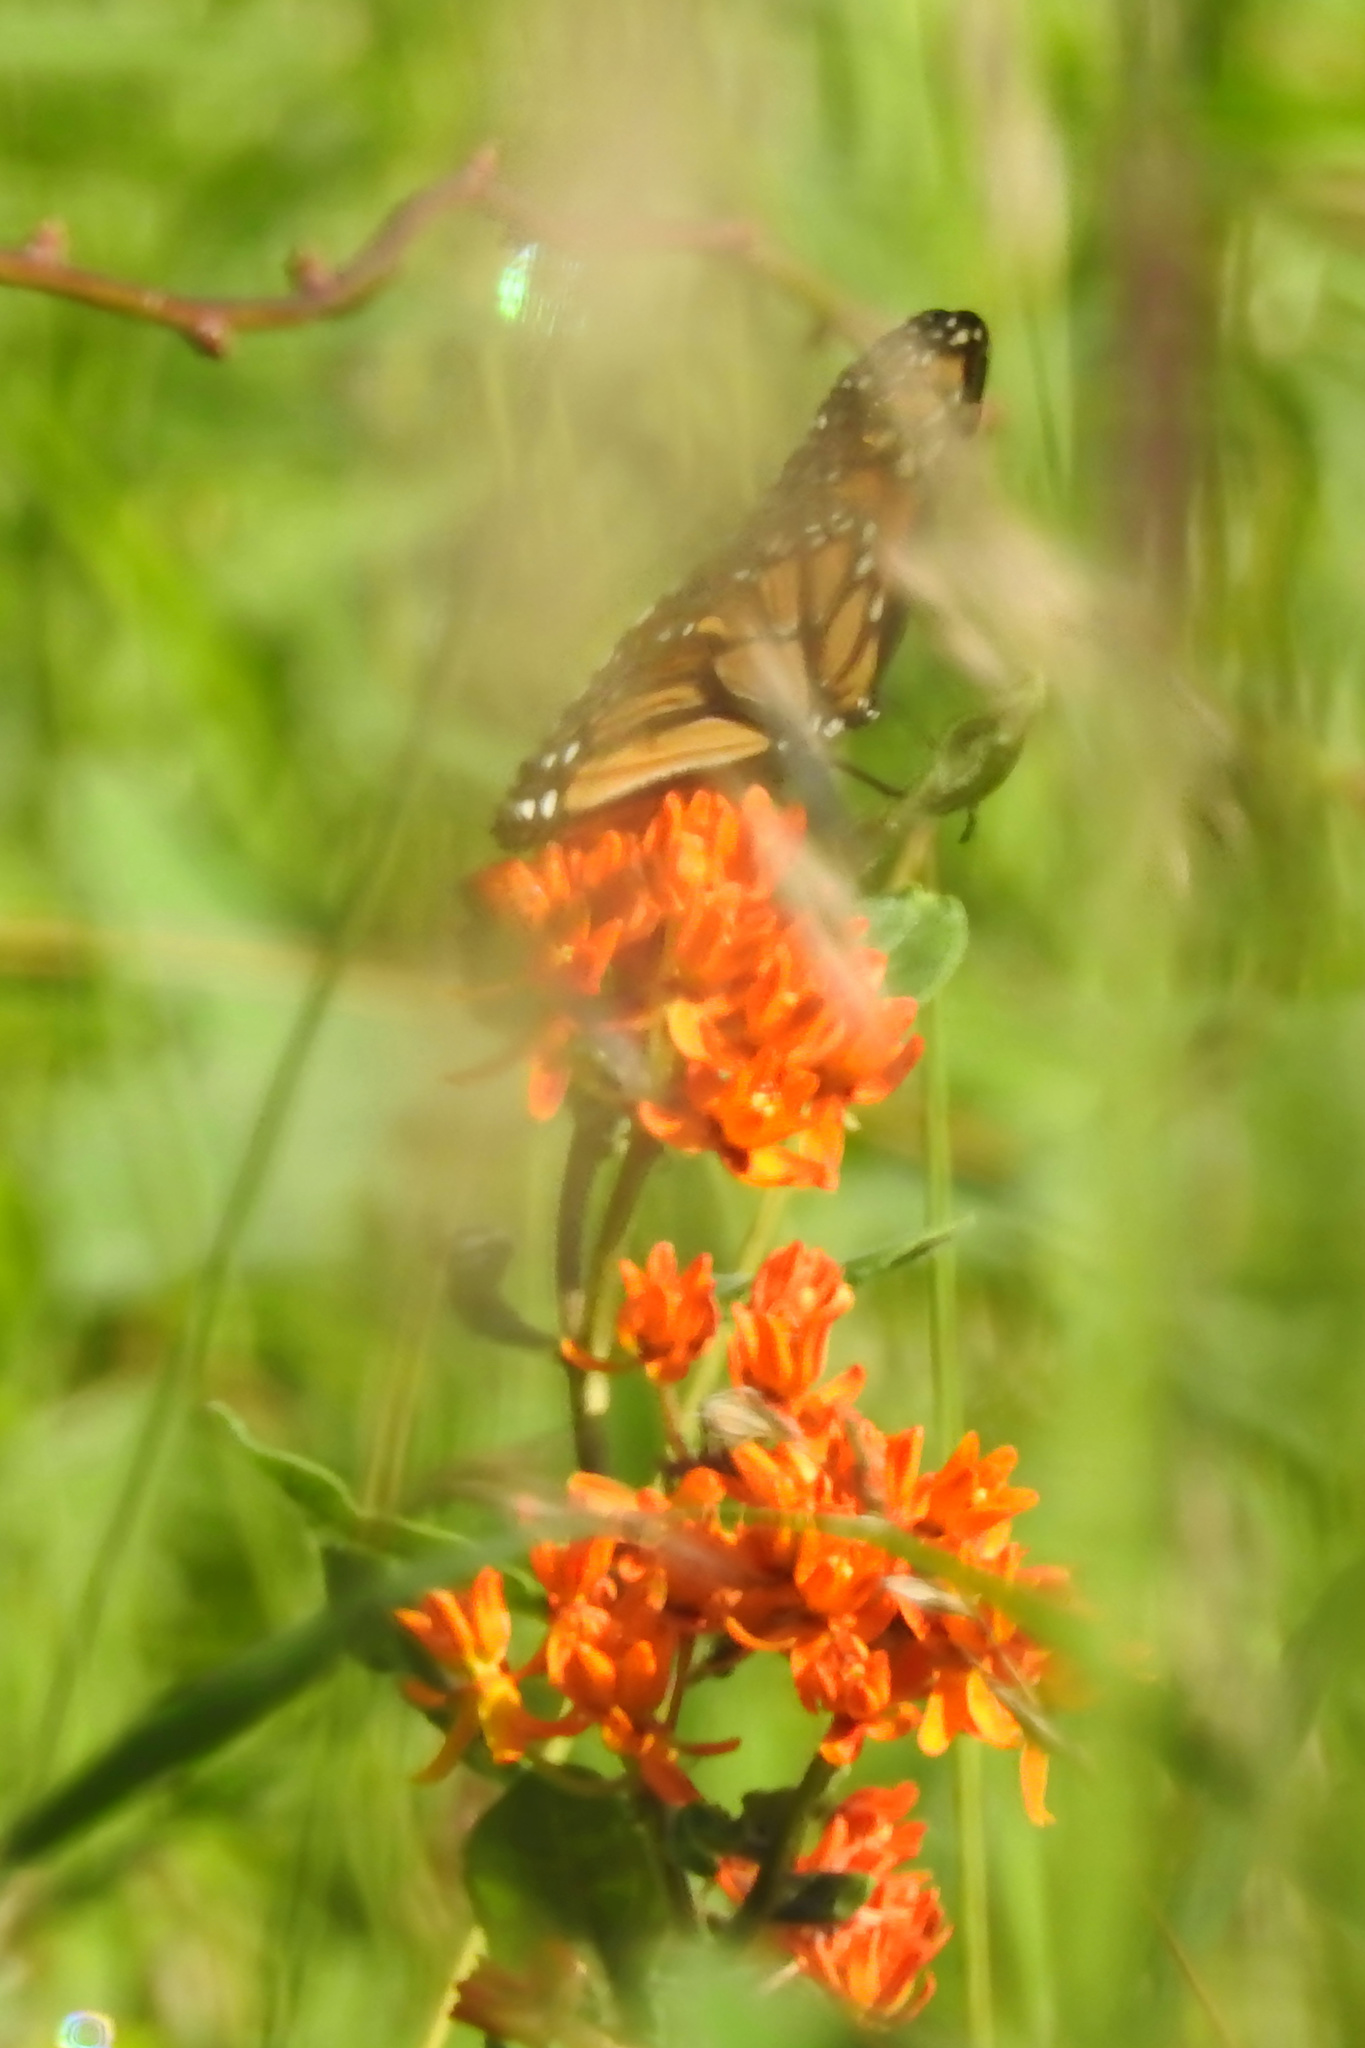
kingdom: Animalia
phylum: Arthropoda
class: Insecta
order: Lepidoptera
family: Nymphalidae
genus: Danaus
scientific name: Danaus plexippus
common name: Monarch
